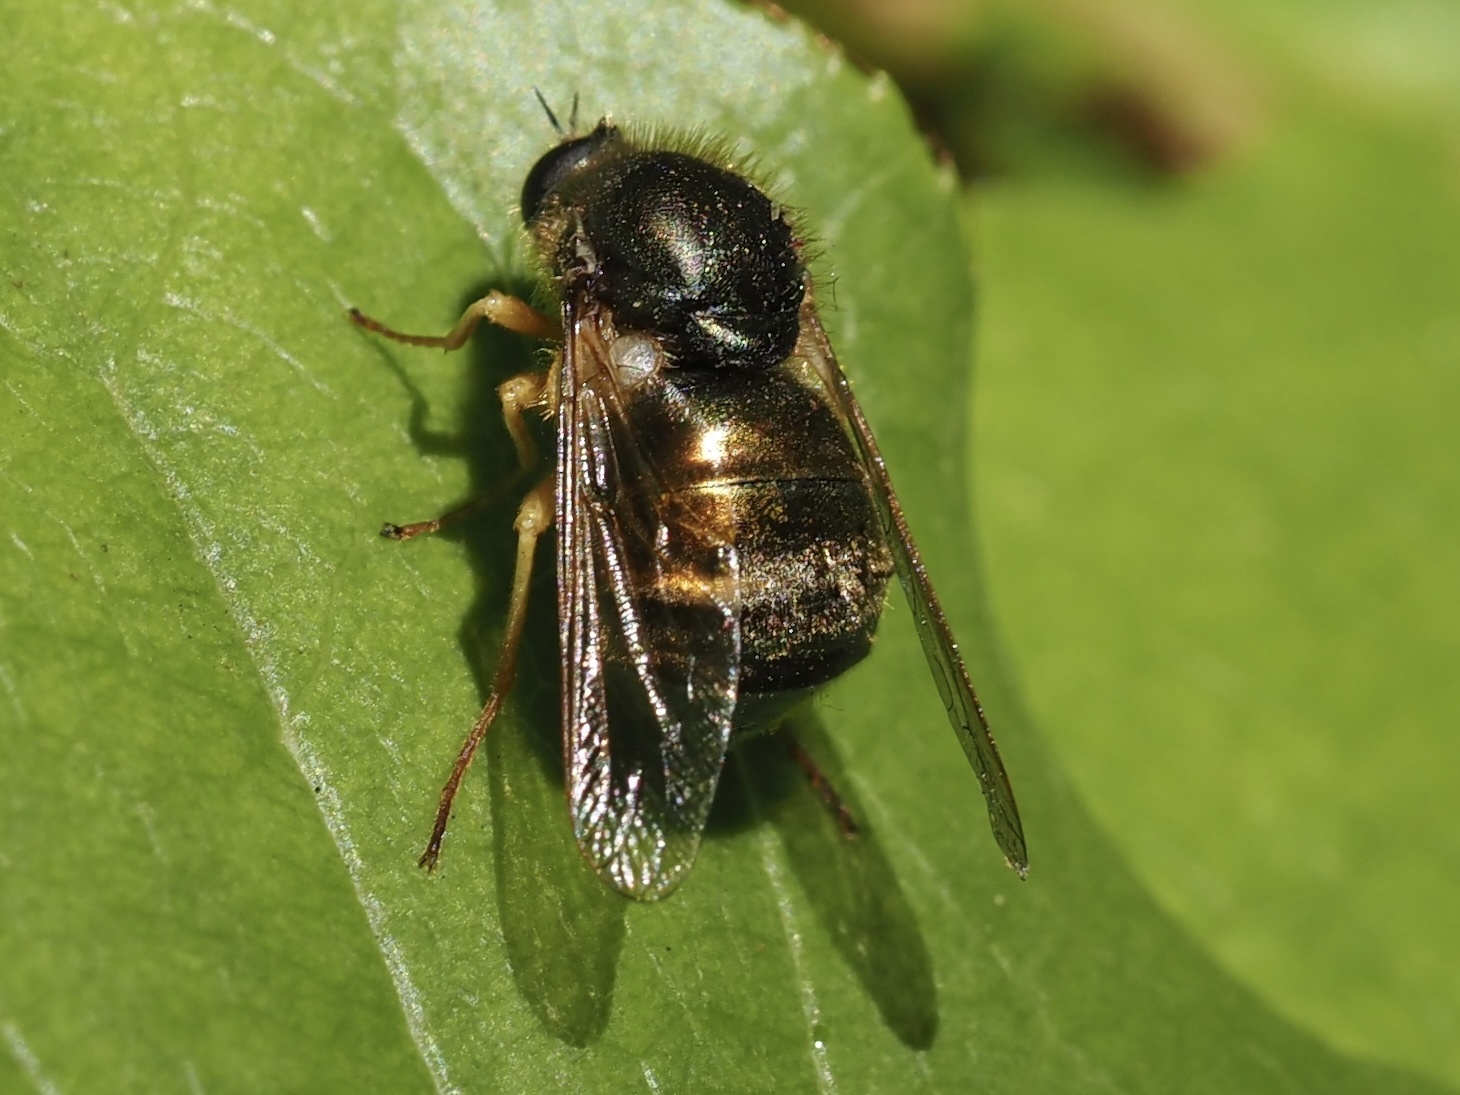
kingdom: Animalia
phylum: Arthropoda
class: Insecta
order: Diptera
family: Acroceridae
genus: Eulonchus
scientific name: Eulonchus sapphirinus
